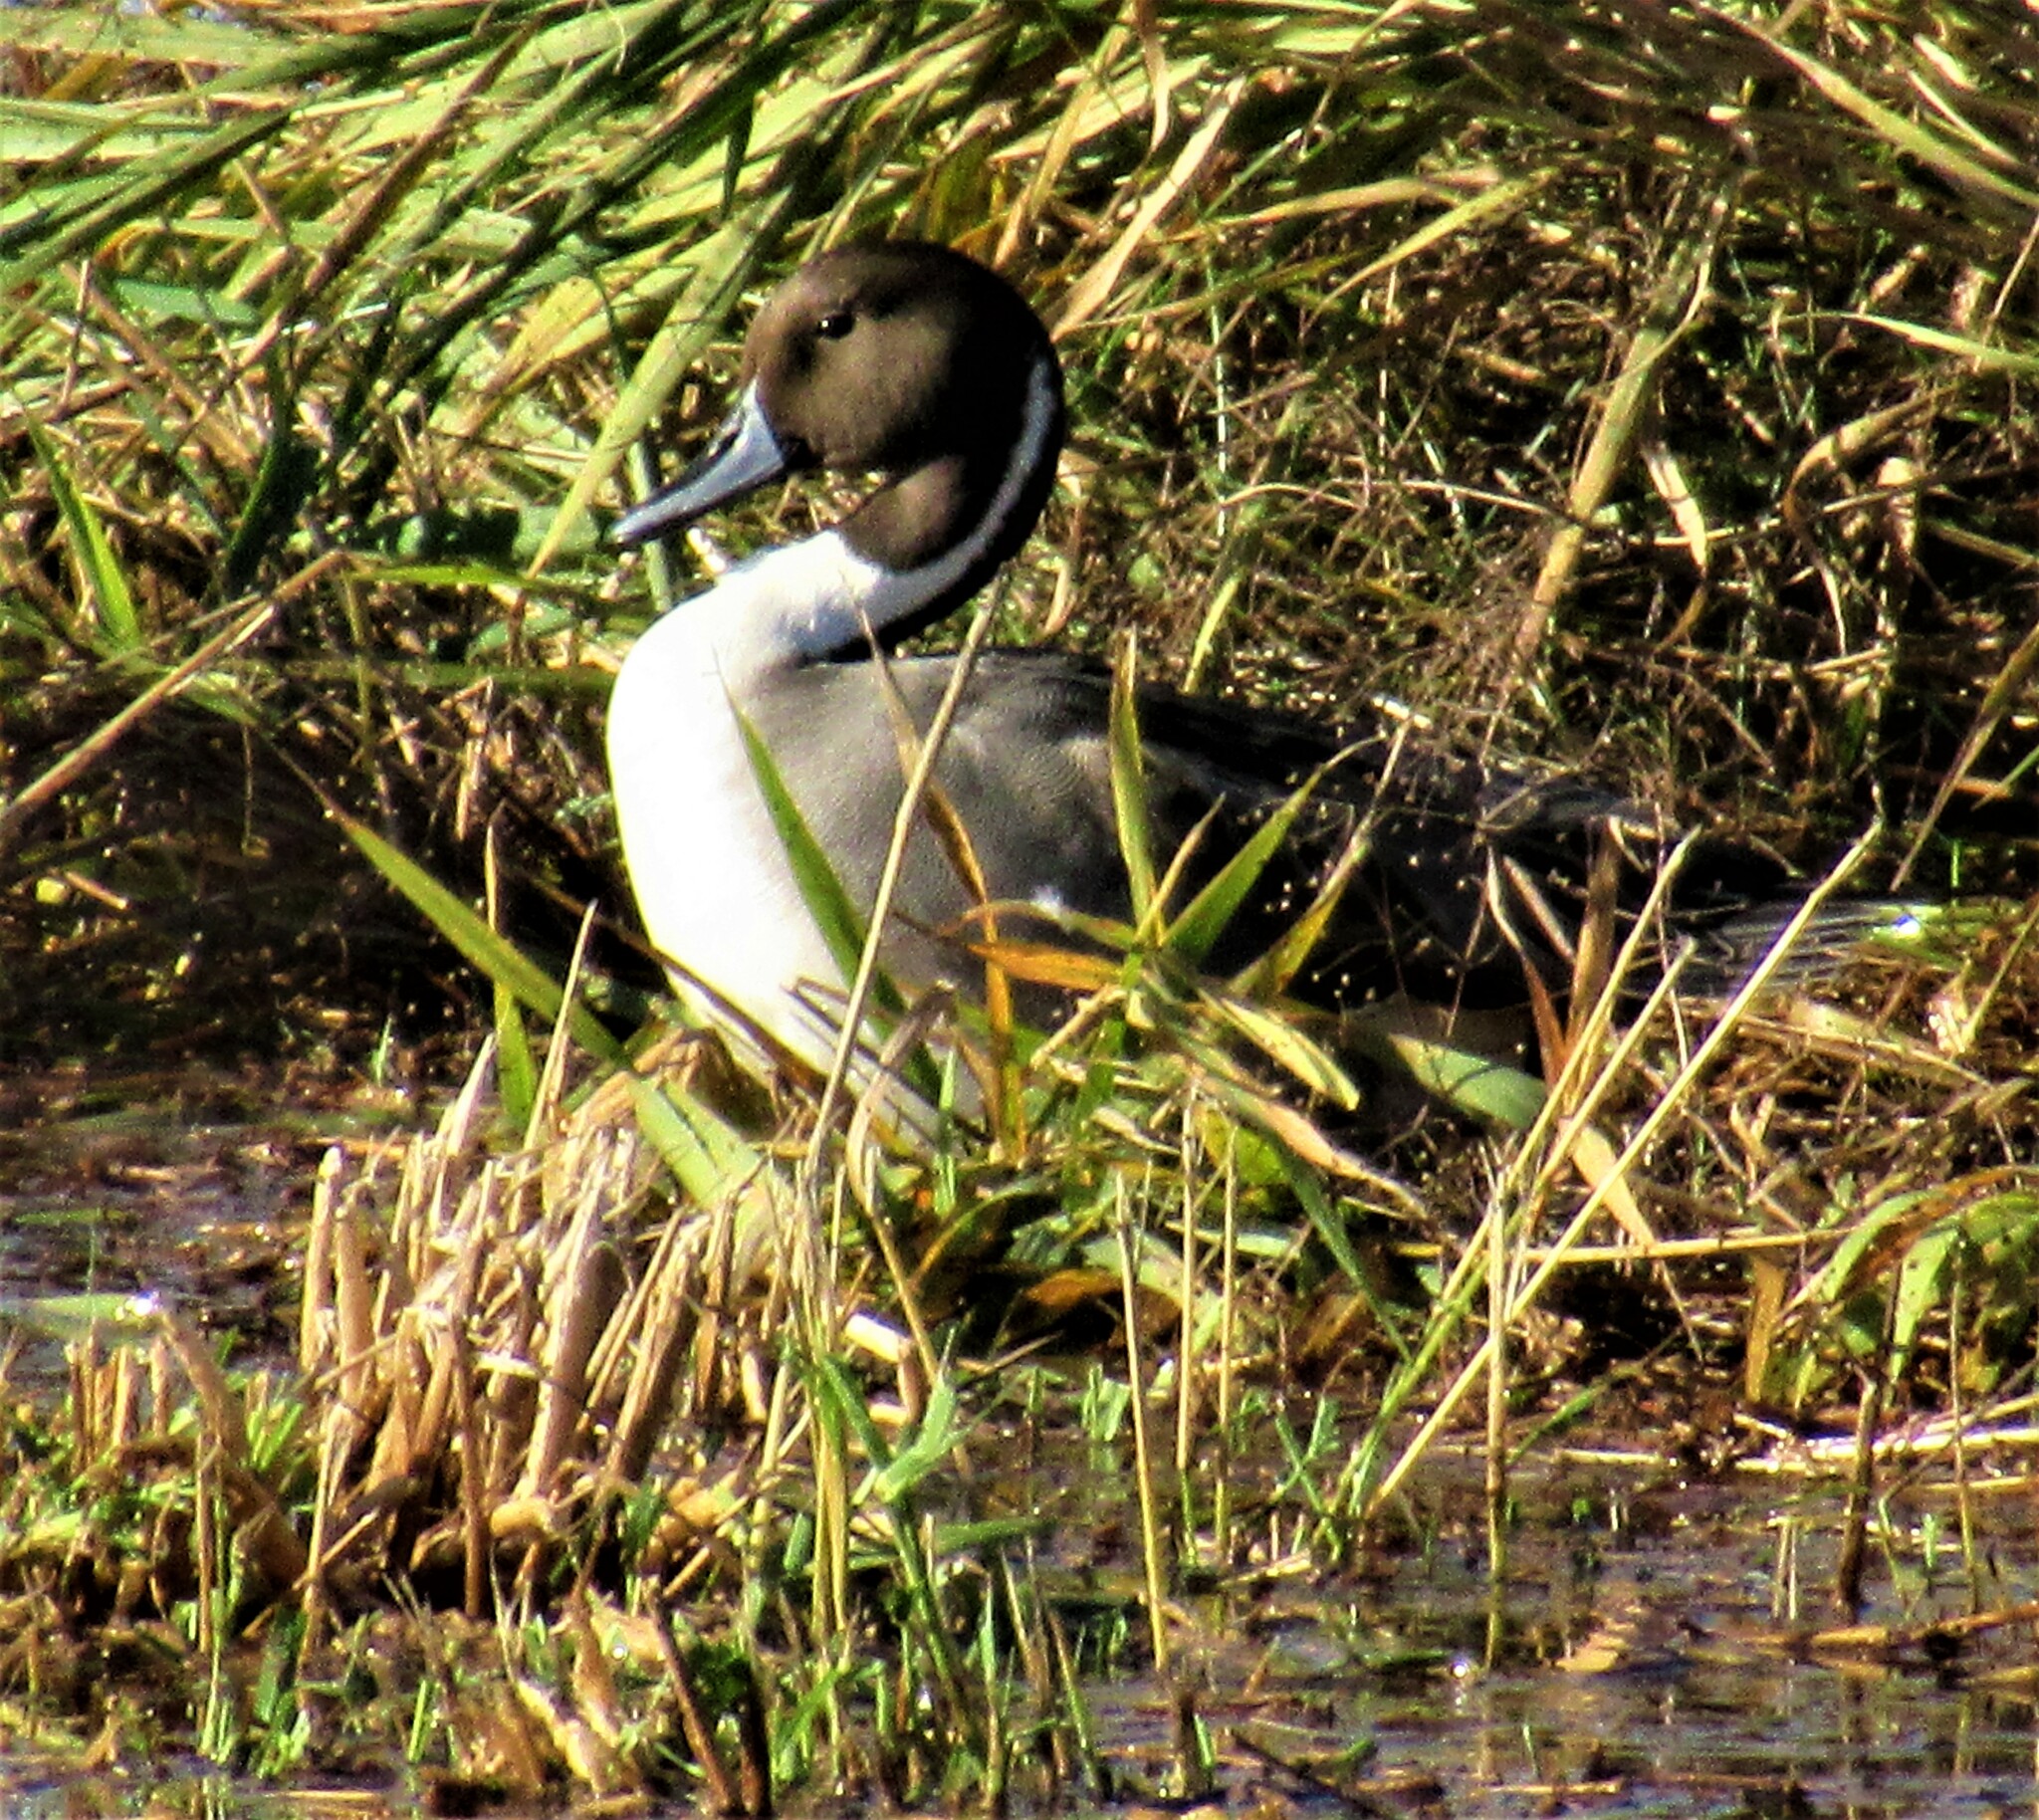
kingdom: Animalia
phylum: Chordata
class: Aves
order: Anseriformes
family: Anatidae
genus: Anas
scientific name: Anas acuta
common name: Northern pintail
